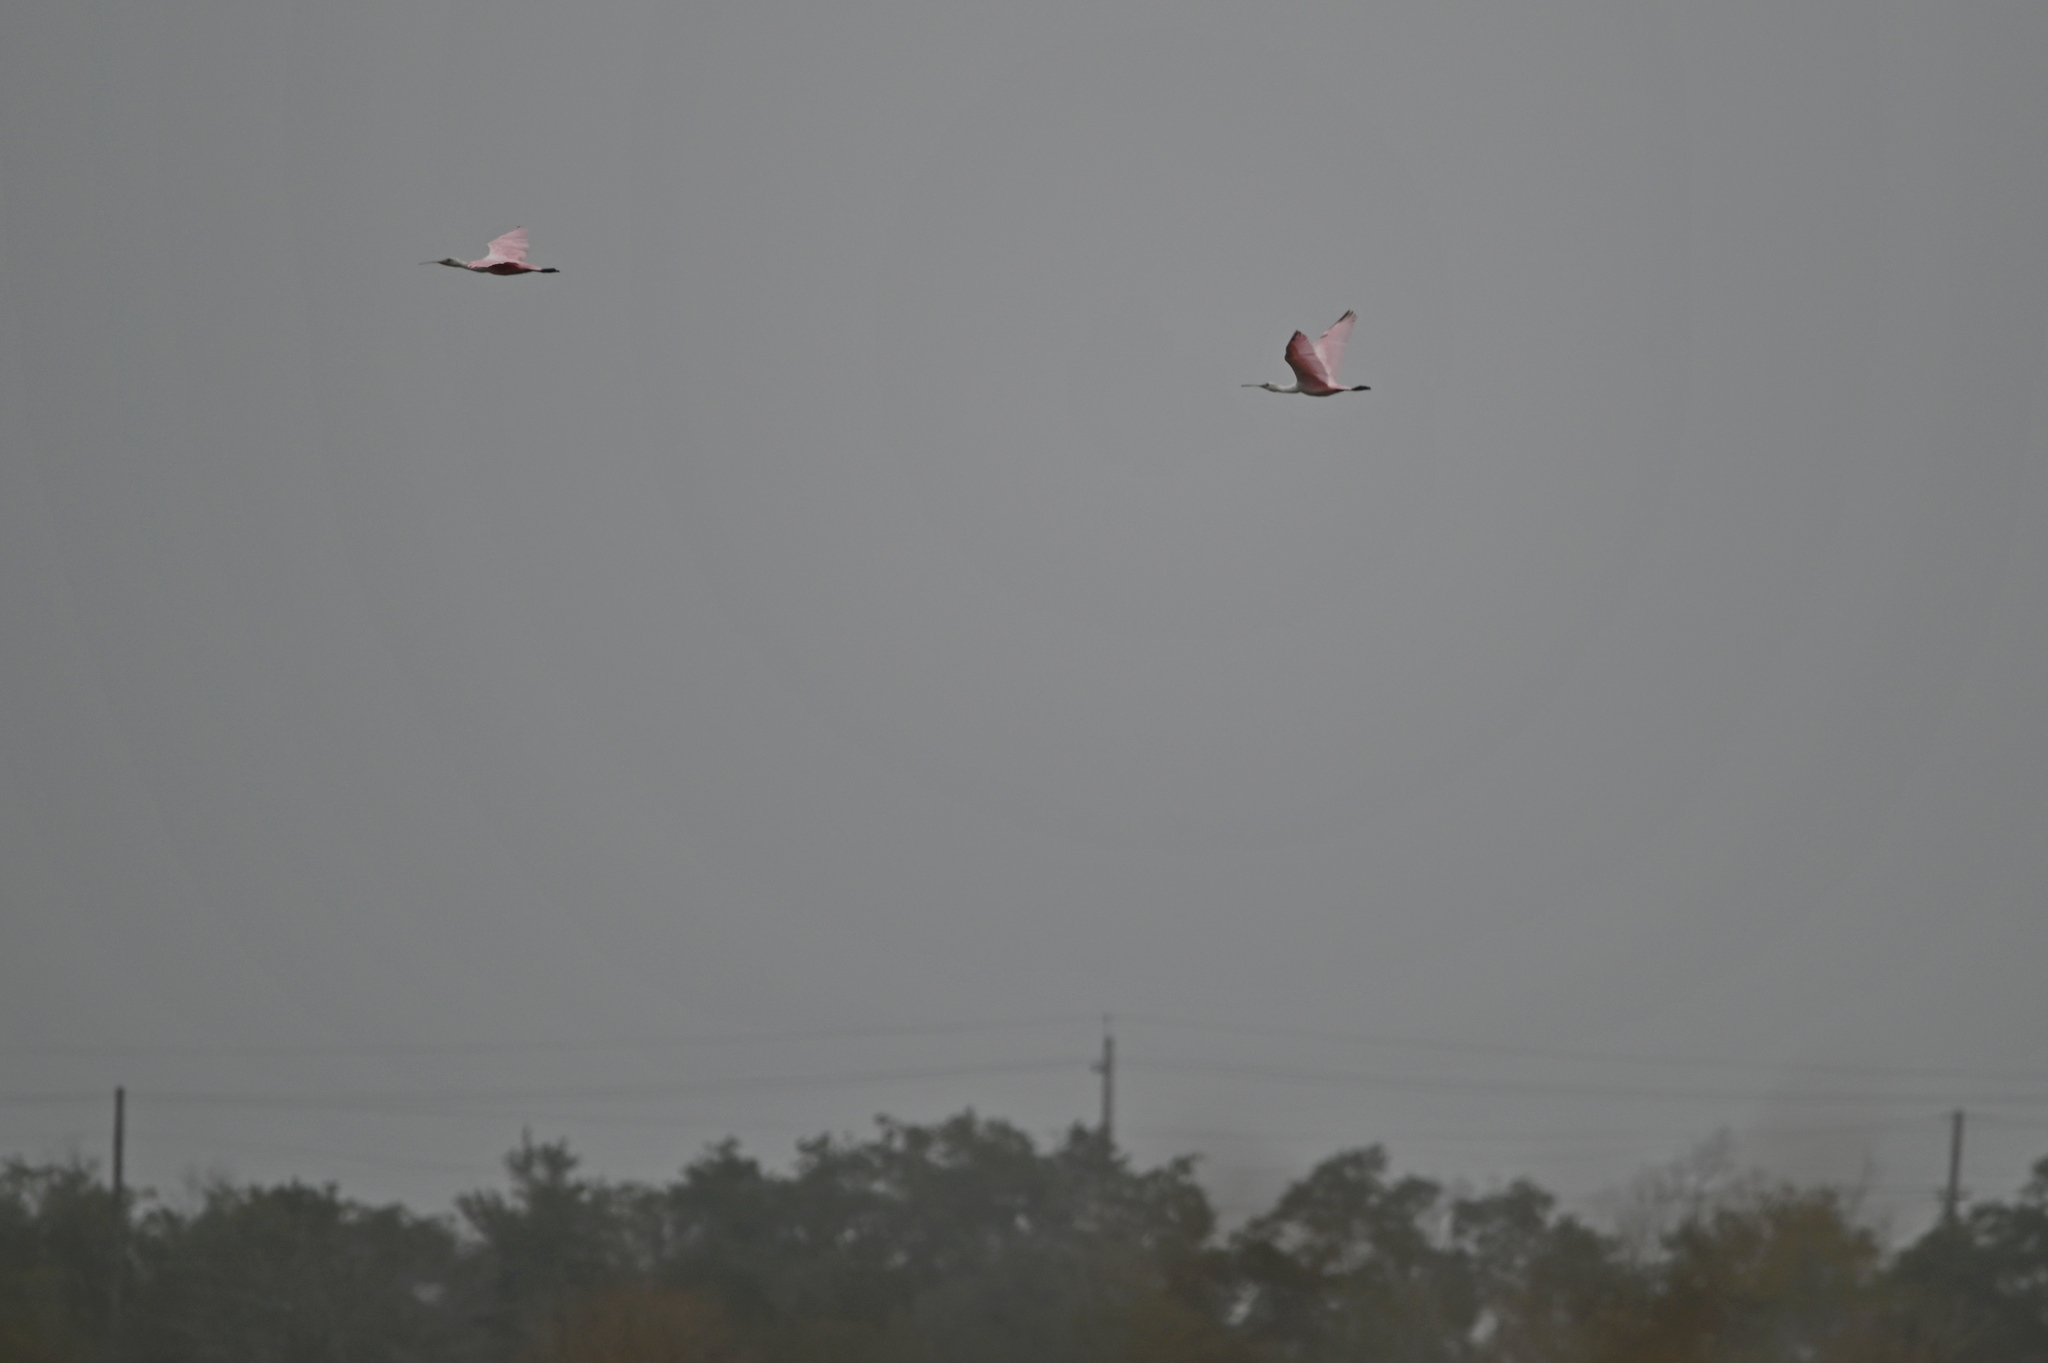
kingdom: Animalia
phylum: Chordata
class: Aves
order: Pelecaniformes
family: Threskiornithidae
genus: Platalea
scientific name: Platalea ajaja
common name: Roseate spoonbill
